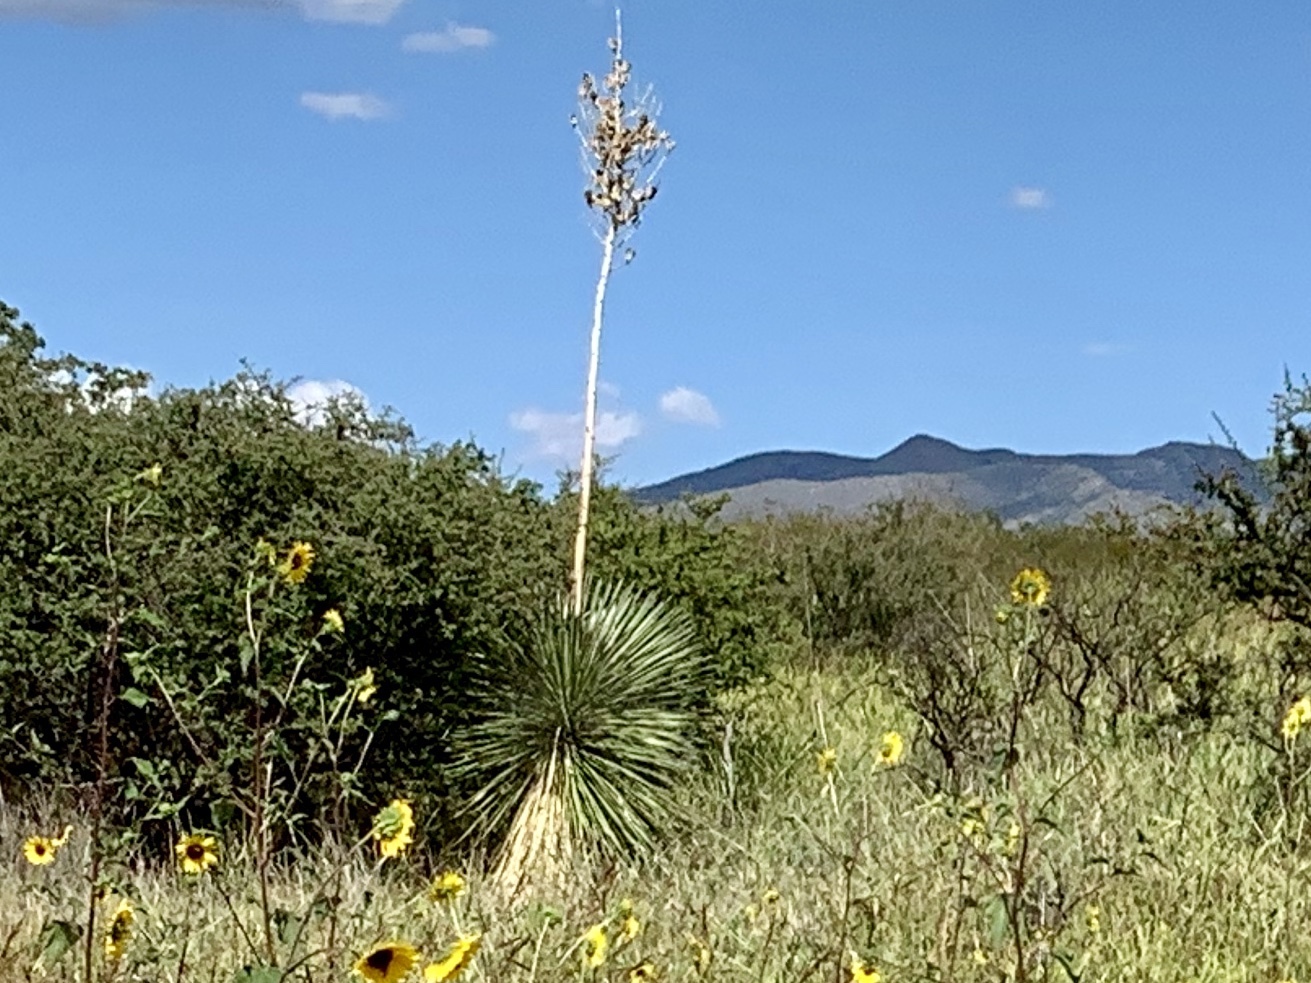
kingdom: Plantae
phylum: Tracheophyta
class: Liliopsida
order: Asparagales
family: Asparagaceae
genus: Yucca
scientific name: Yucca elata
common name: Palmella
